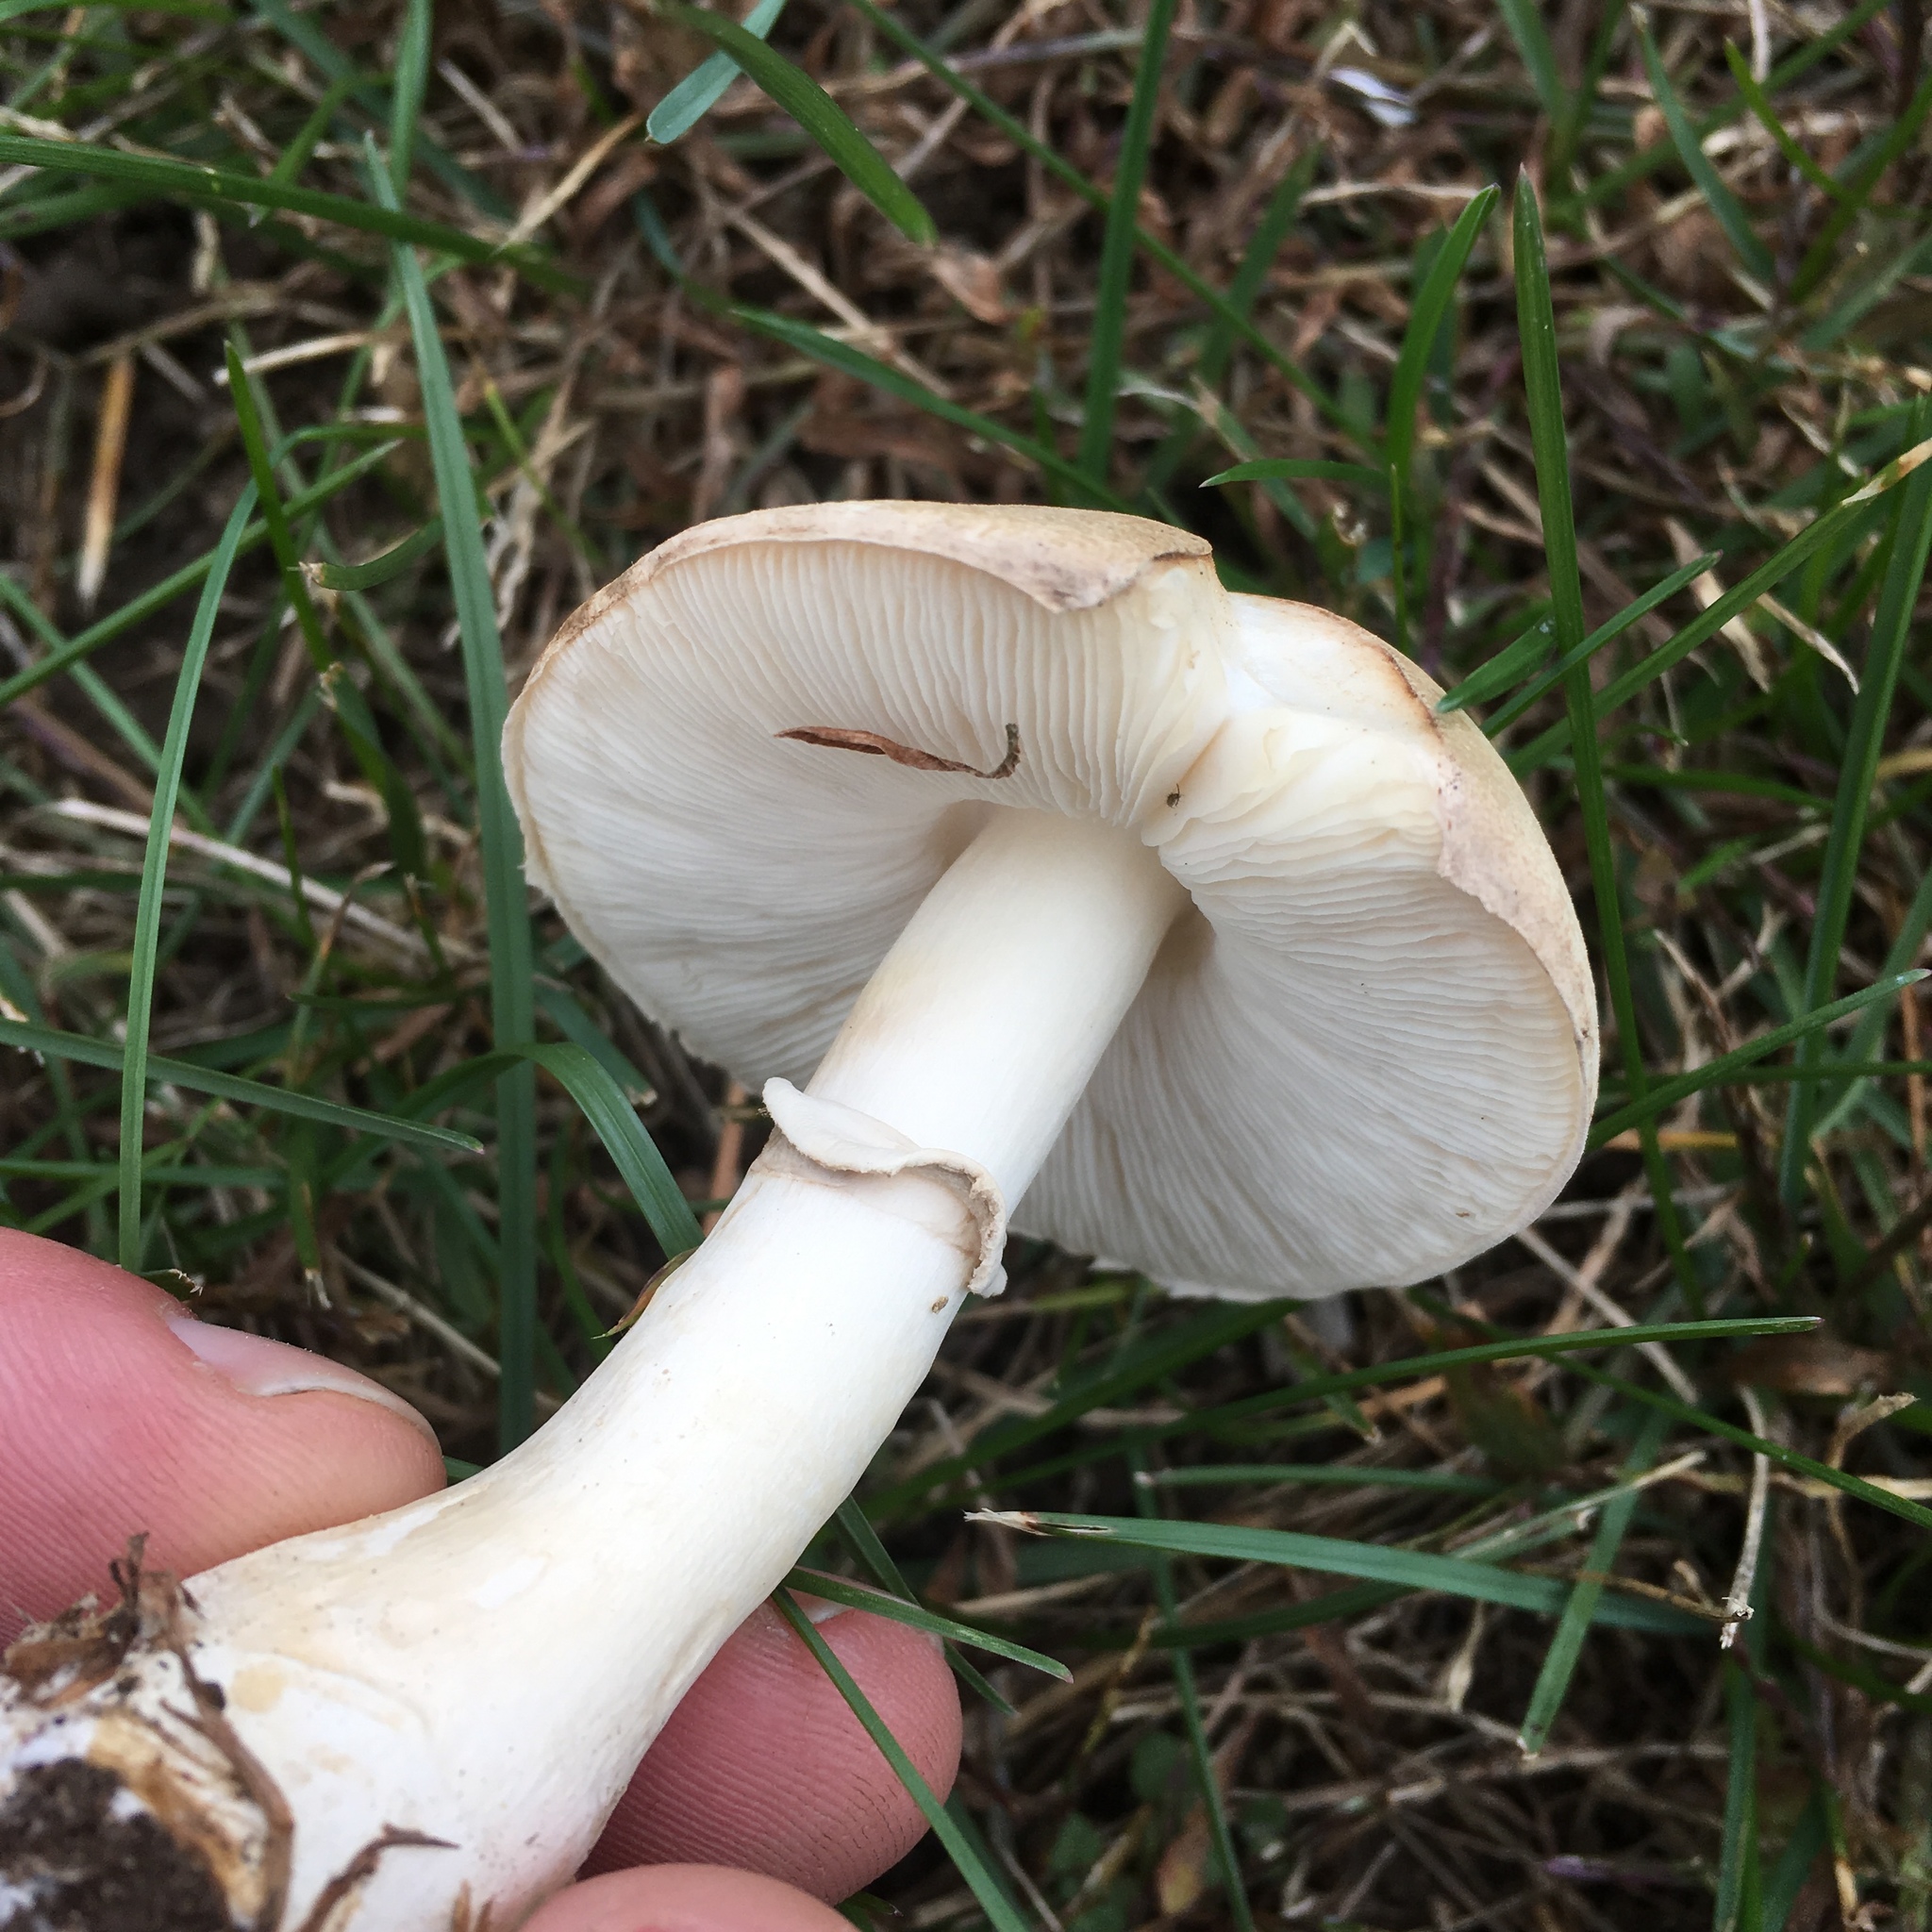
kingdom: Fungi
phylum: Basidiomycota
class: Agaricomycetes
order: Agaricales
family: Agaricaceae
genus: Leucoagaricus
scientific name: Leucoagaricus leucothites
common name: White dapperling
